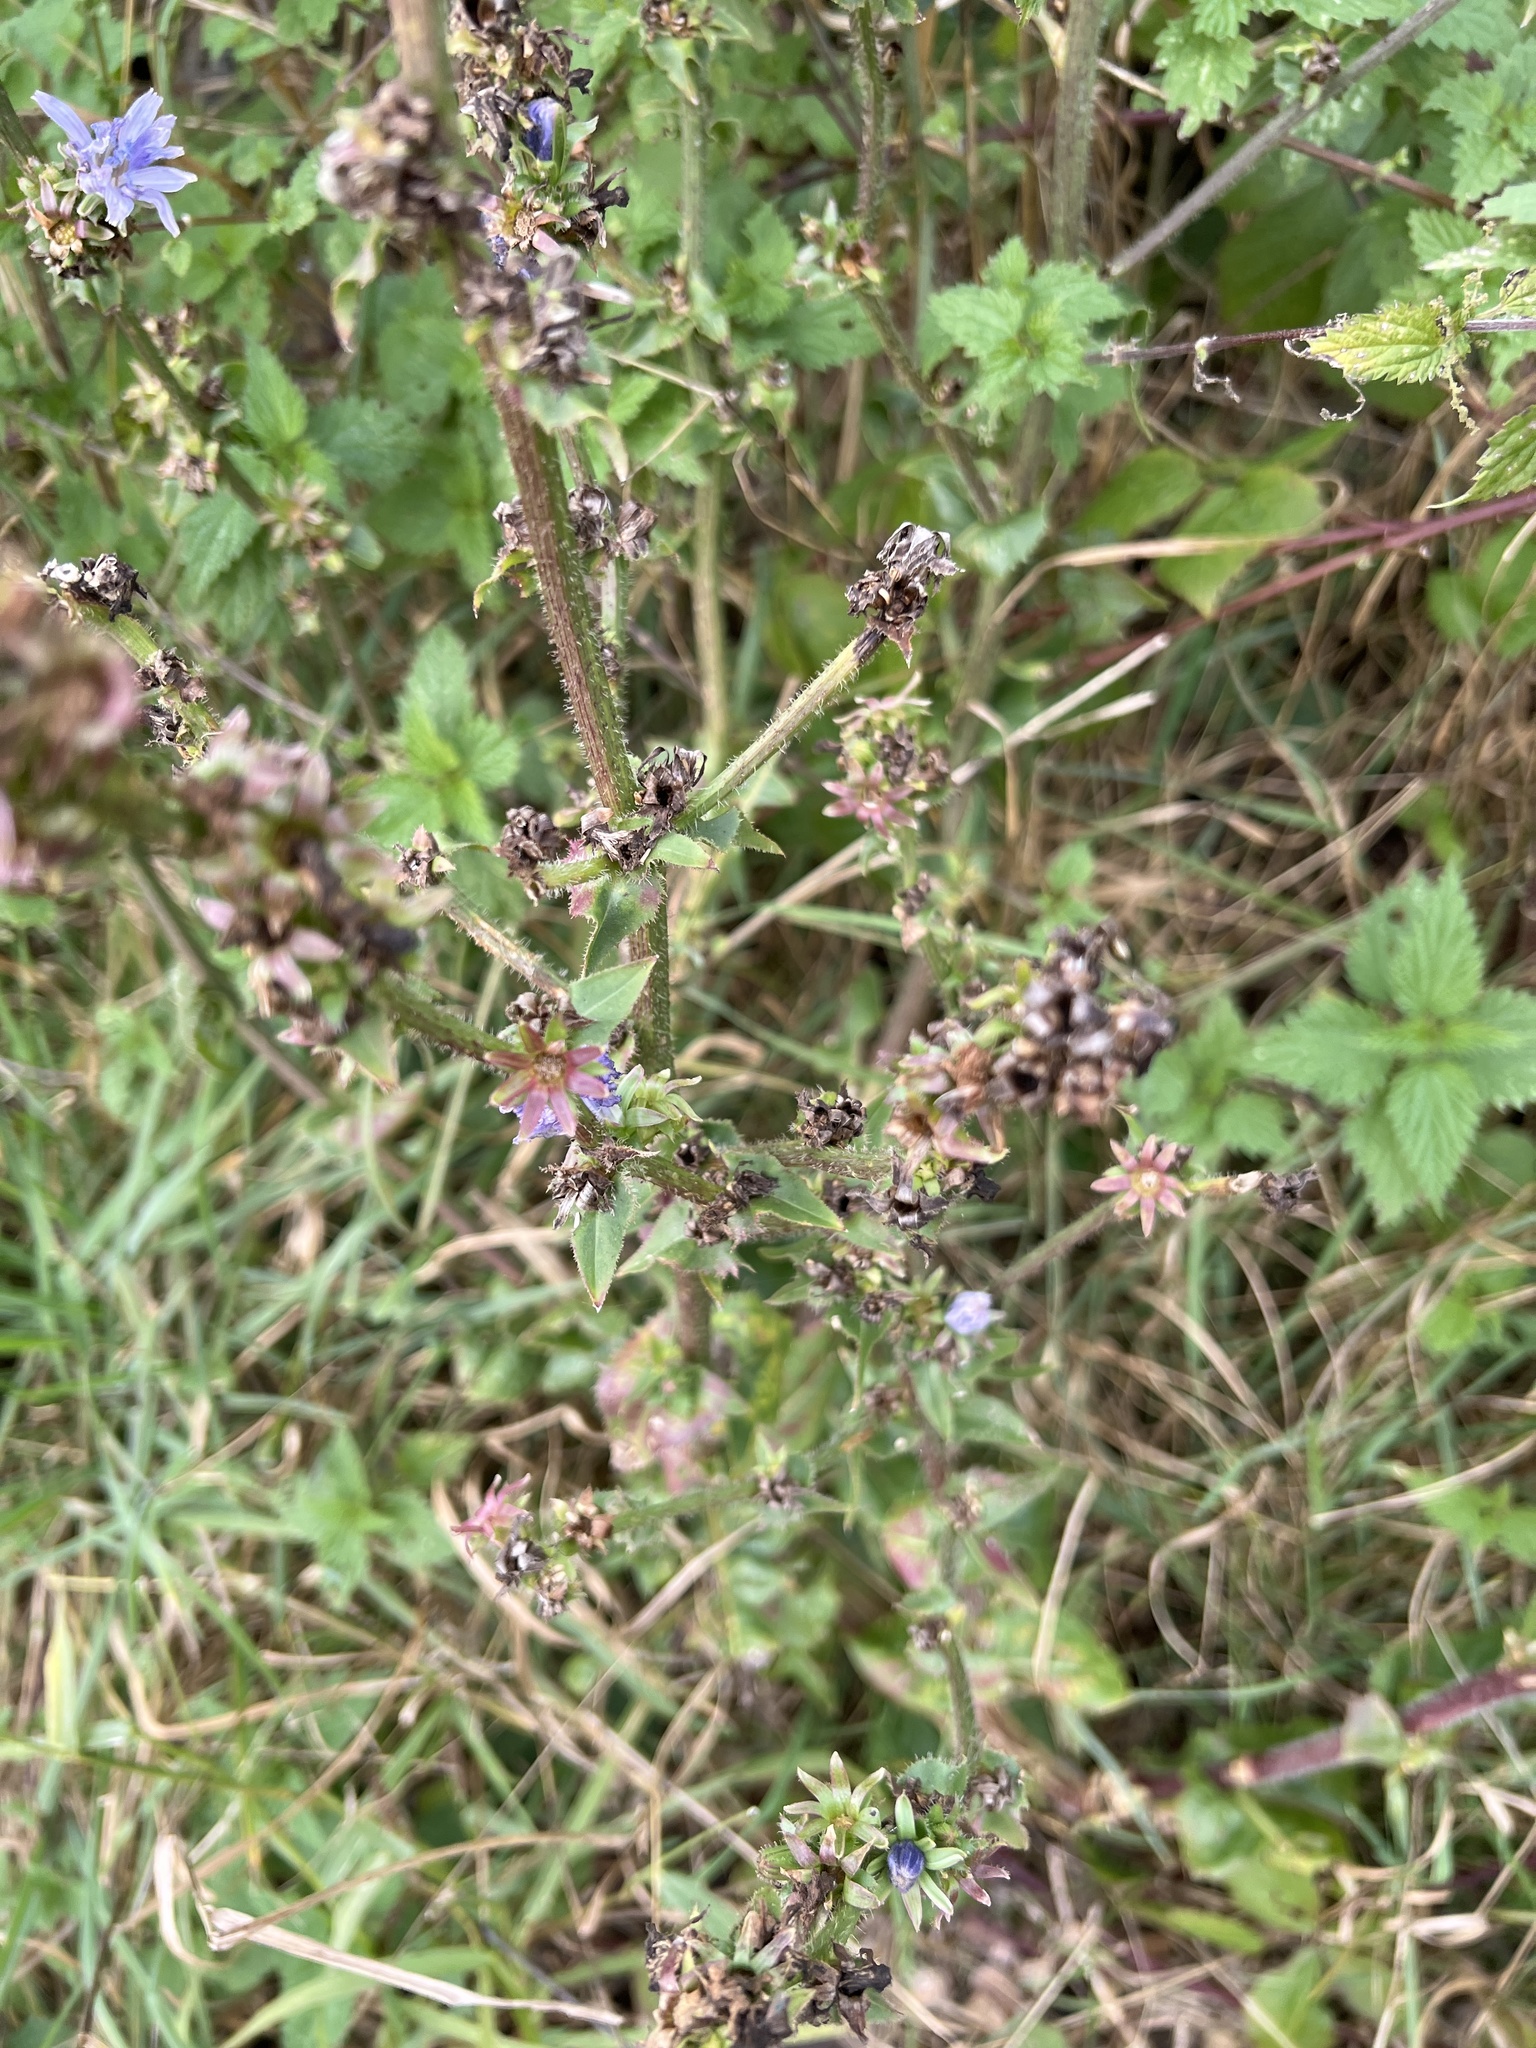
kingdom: Plantae
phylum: Tracheophyta
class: Magnoliopsida
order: Asterales
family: Asteraceae
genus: Cichorium
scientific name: Cichorium intybus
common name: Chicory
